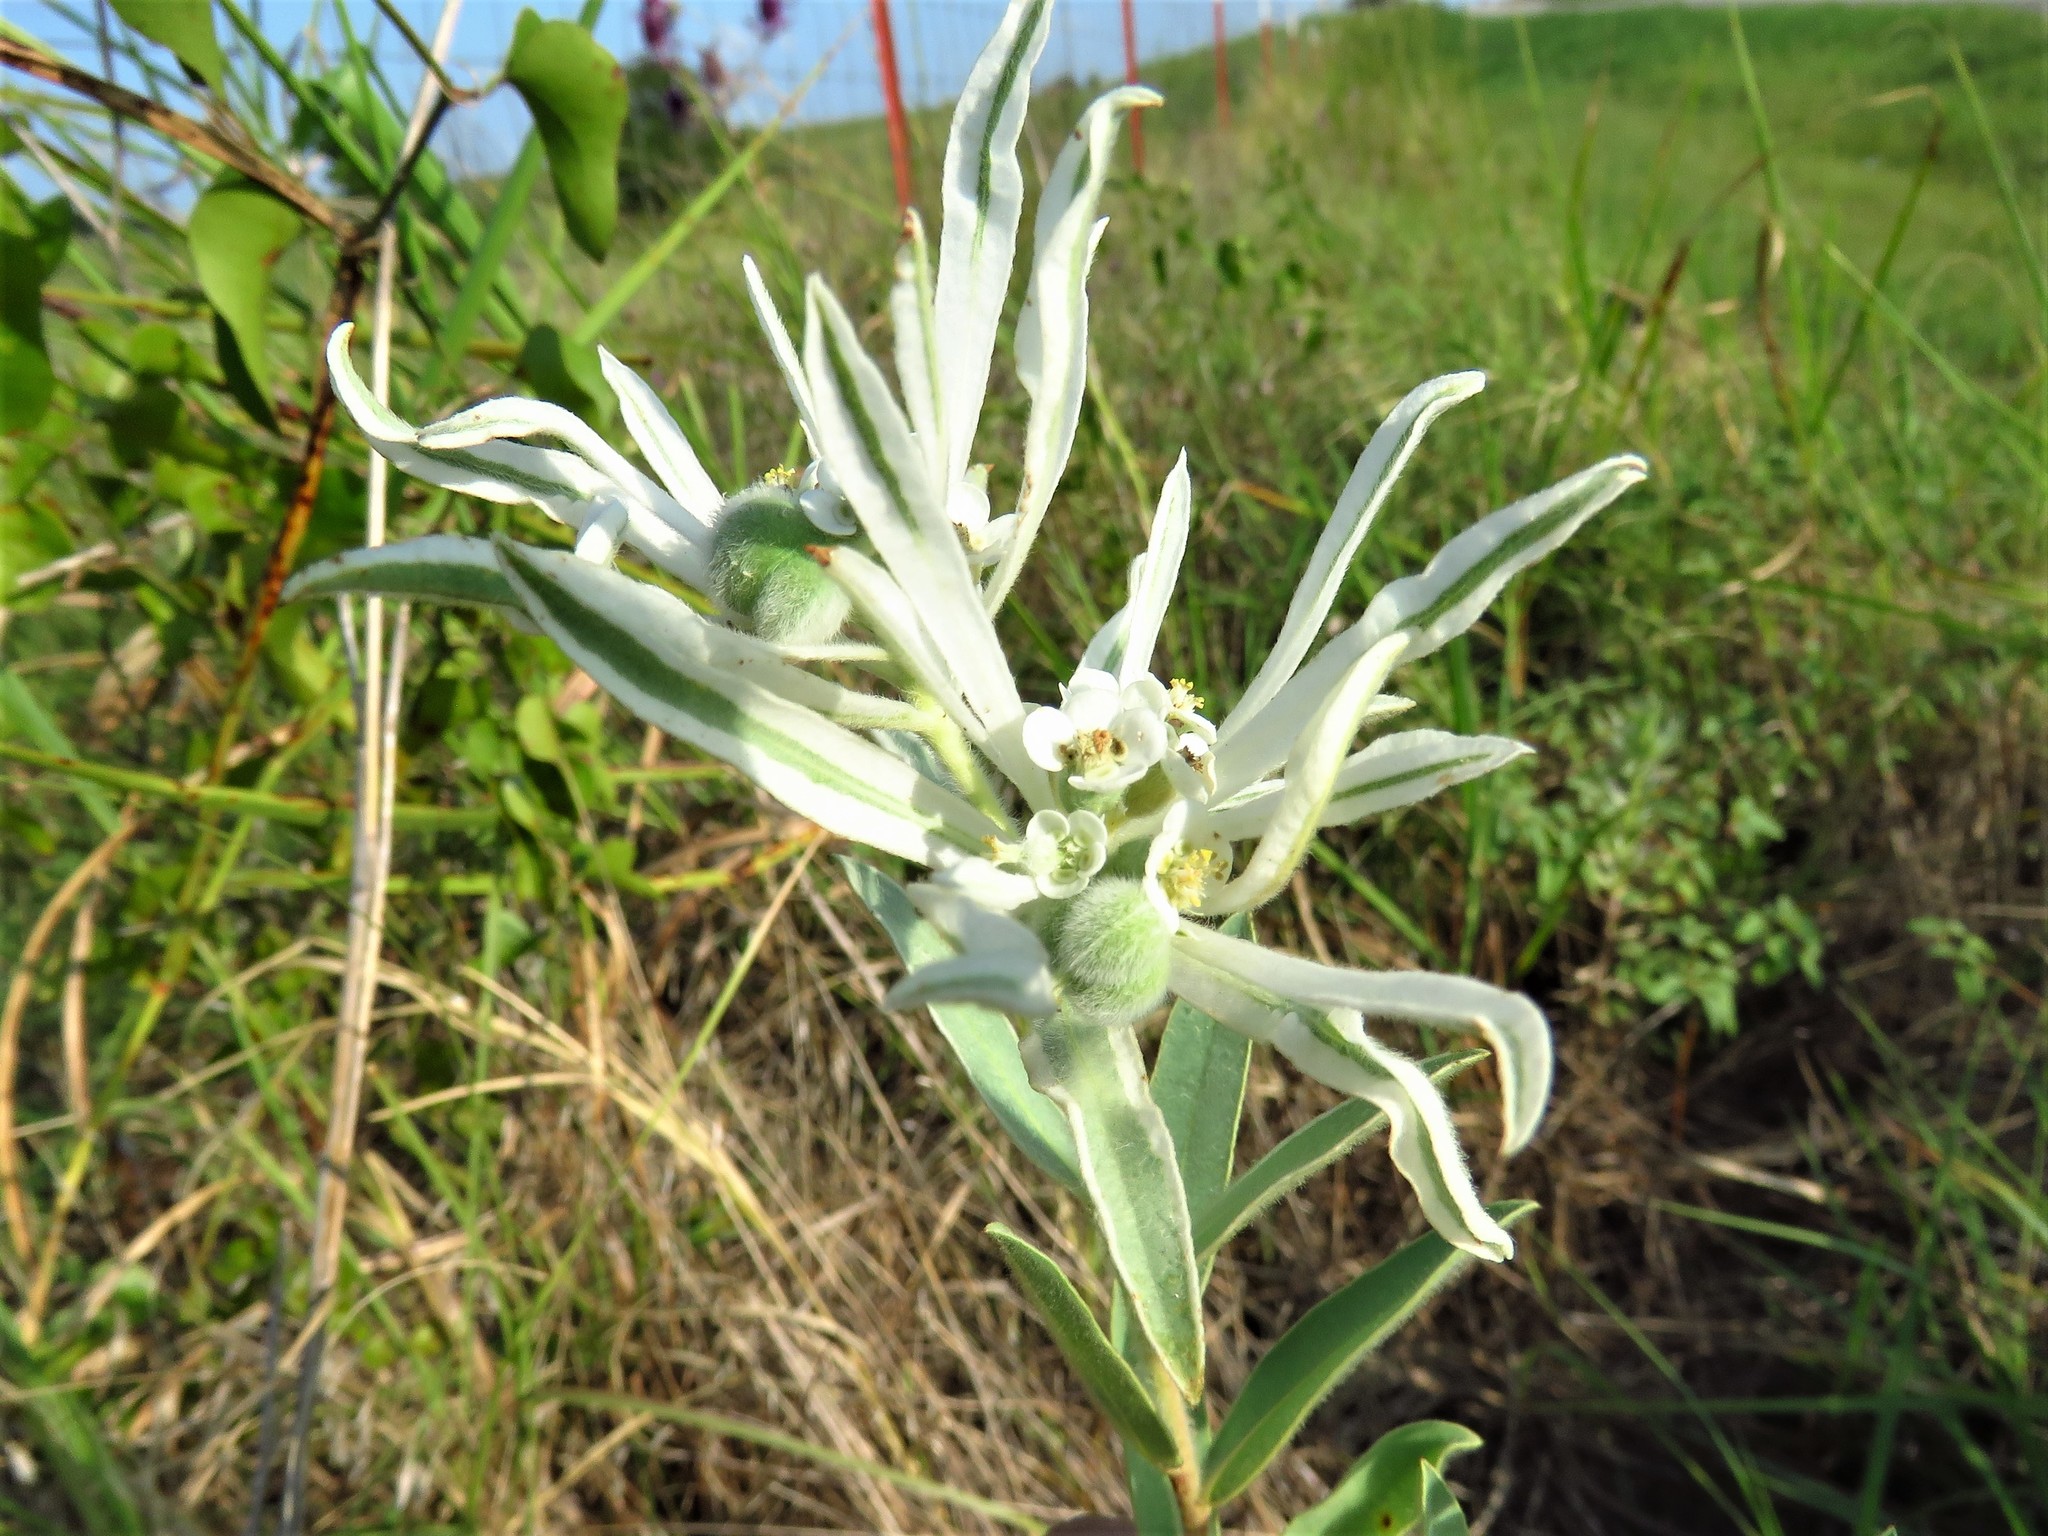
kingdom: Plantae
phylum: Tracheophyta
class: Magnoliopsida
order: Malpighiales
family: Euphorbiaceae
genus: Euphorbia
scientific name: Euphorbia bicolor
